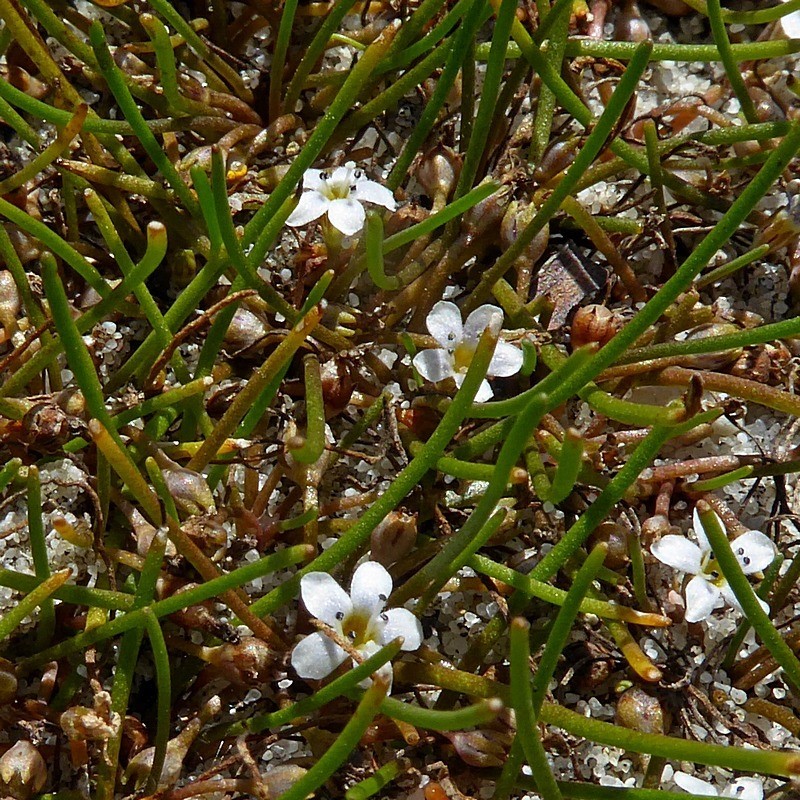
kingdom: Plantae
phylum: Tracheophyta
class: Magnoliopsida
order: Lamiales
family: Scrophulariaceae
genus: Limosella
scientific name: Limosella australis
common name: Welsh mudwort
